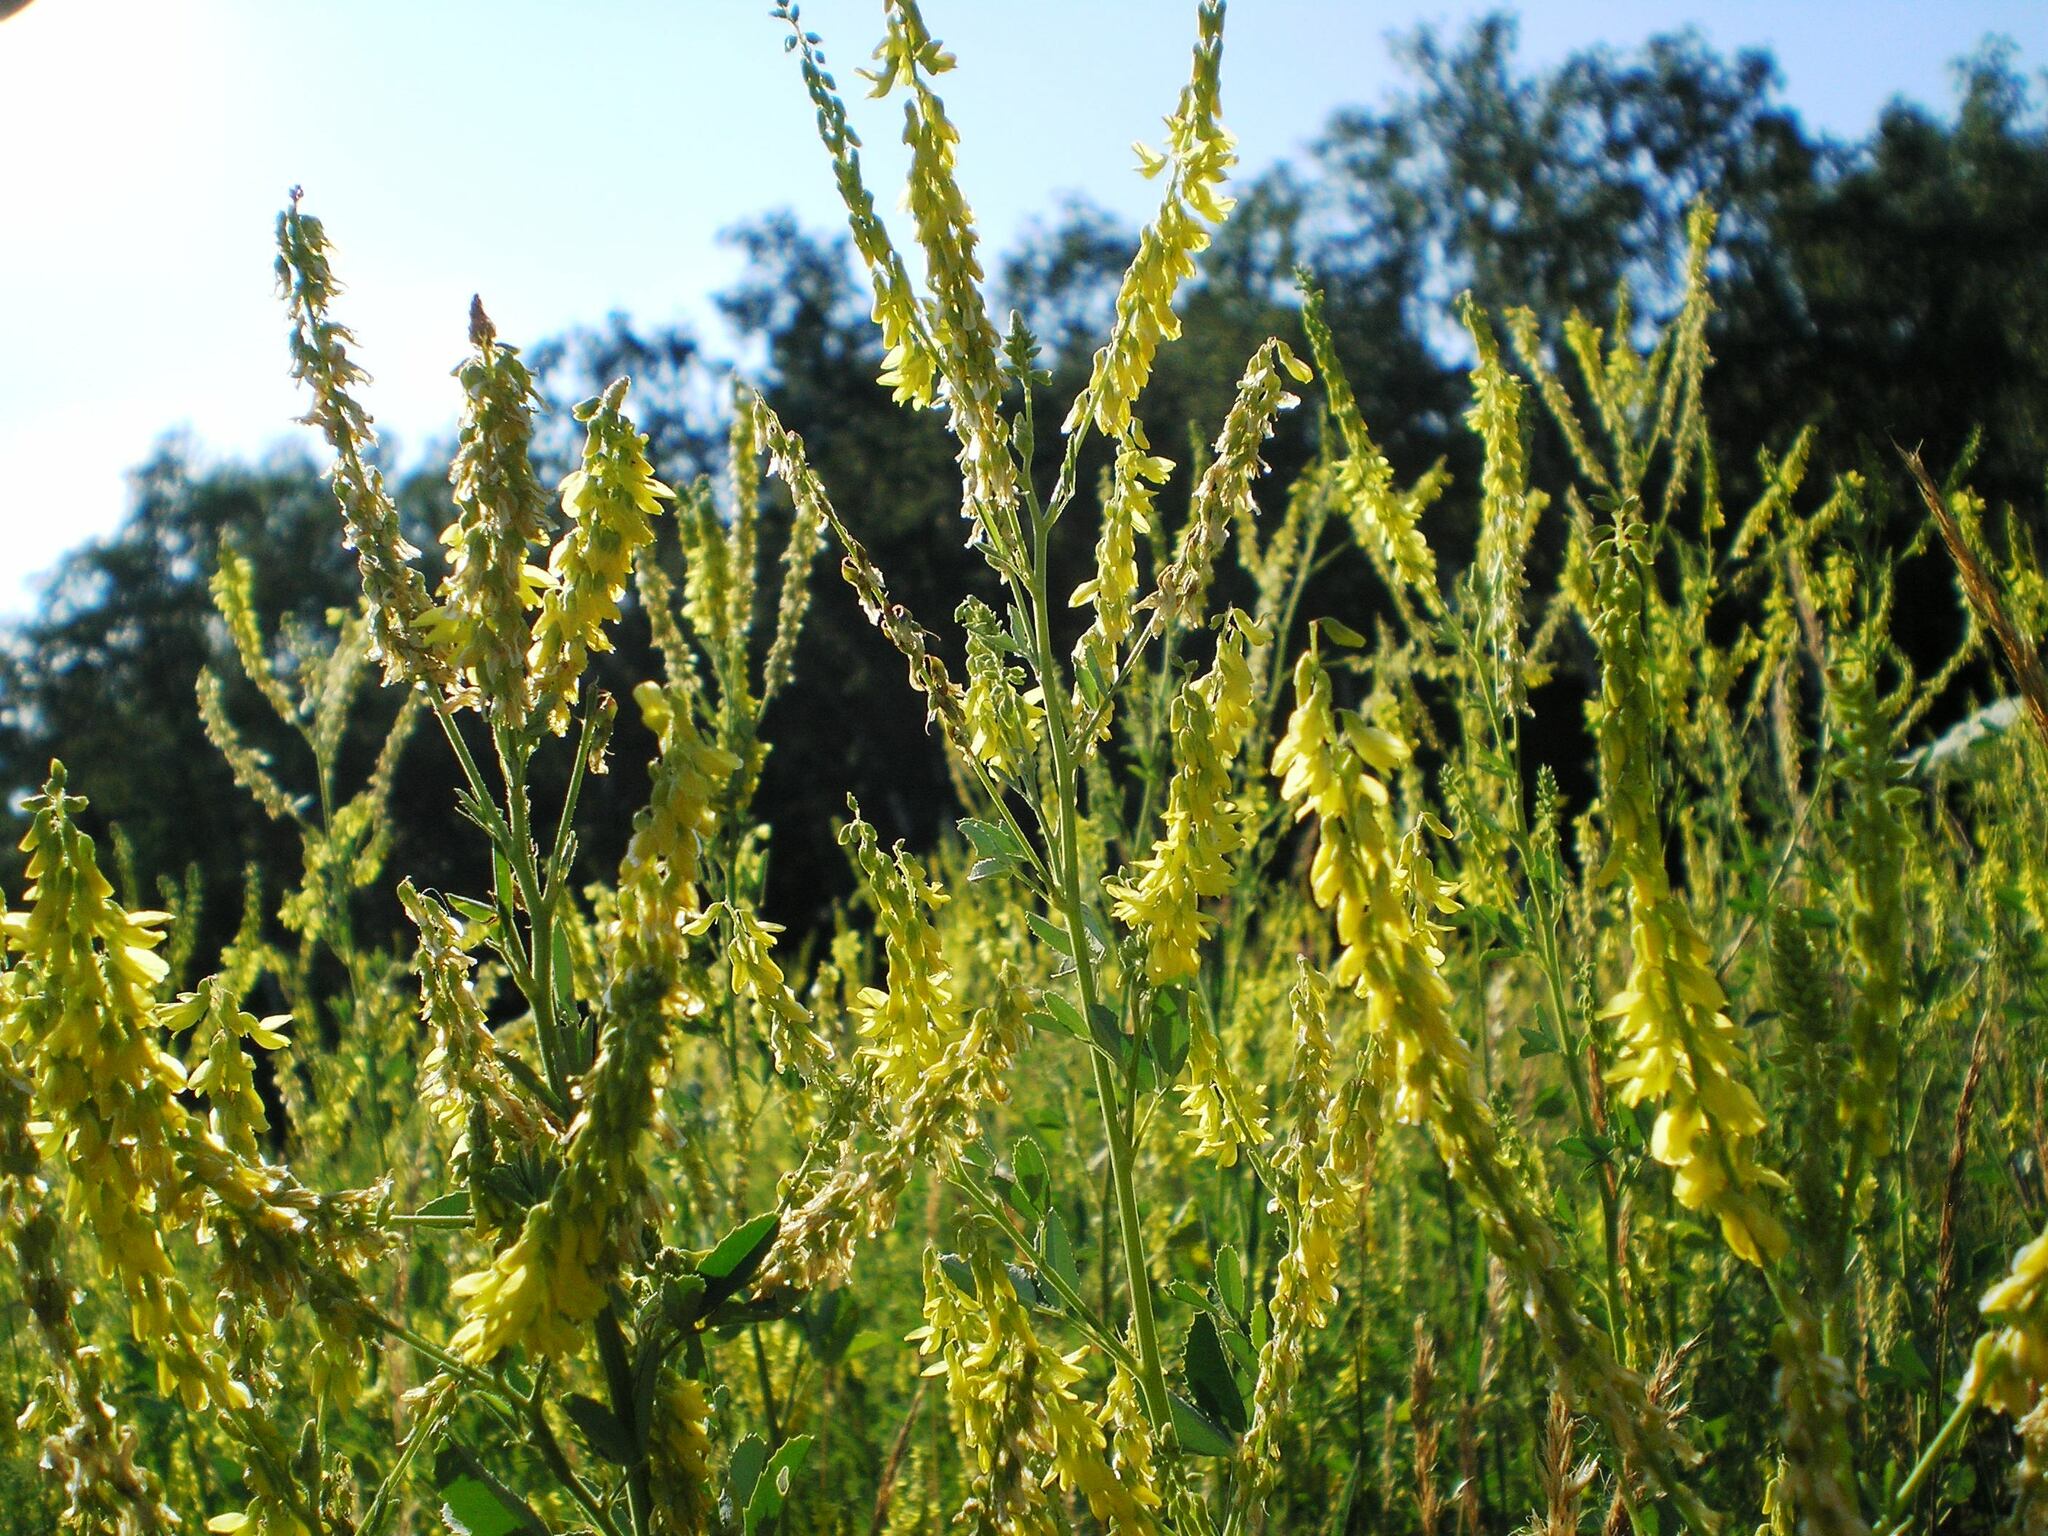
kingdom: Plantae
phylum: Tracheophyta
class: Magnoliopsida
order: Fabales
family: Fabaceae
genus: Melilotus
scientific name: Melilotus officinalis
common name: Sweetclover
